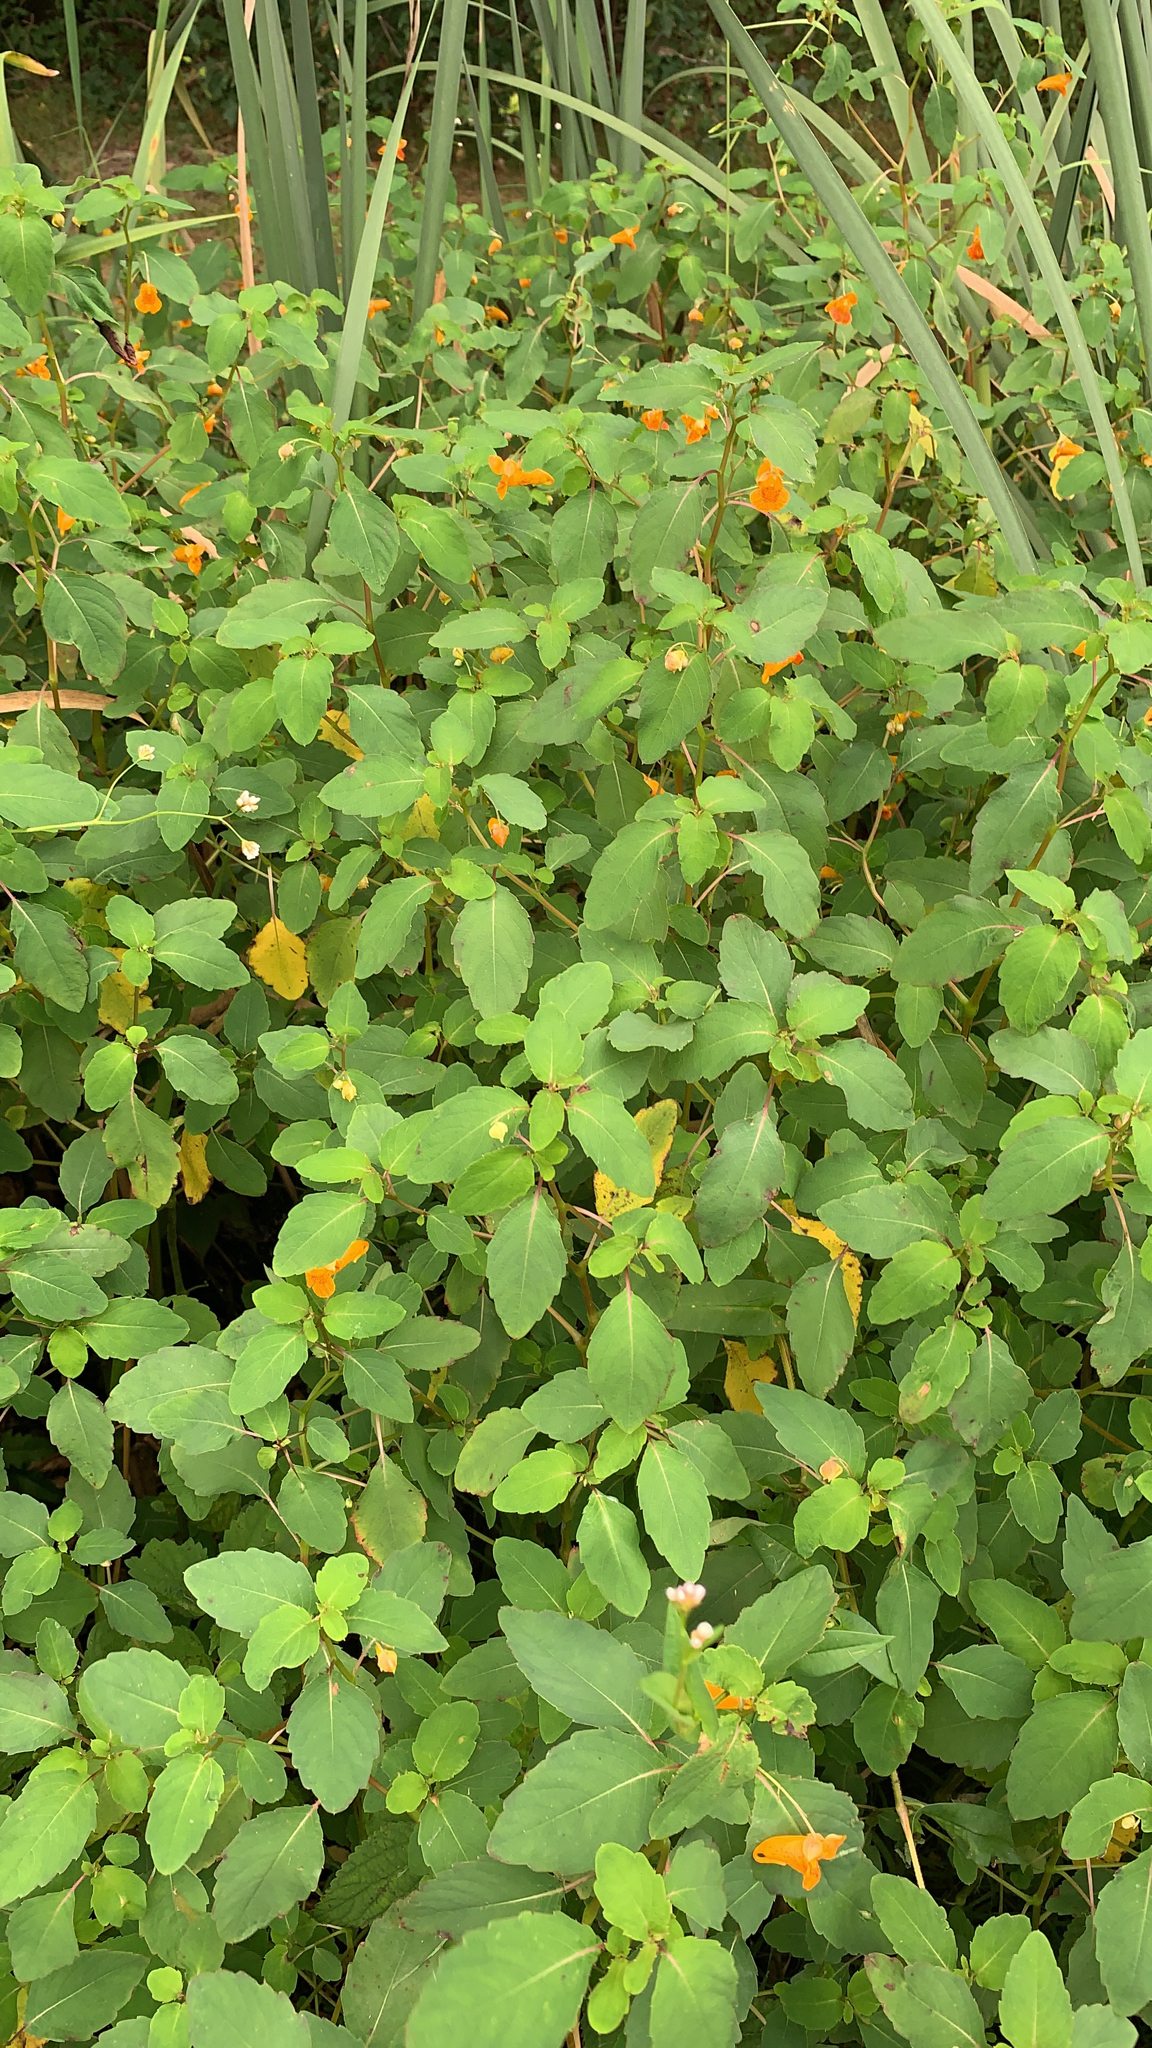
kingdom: Plantae
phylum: Tracheophyta
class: Magnoliopsida
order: Ericales
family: Balsaminaceae
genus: Impatiens
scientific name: Impatiens capensis
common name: Orange balsam
